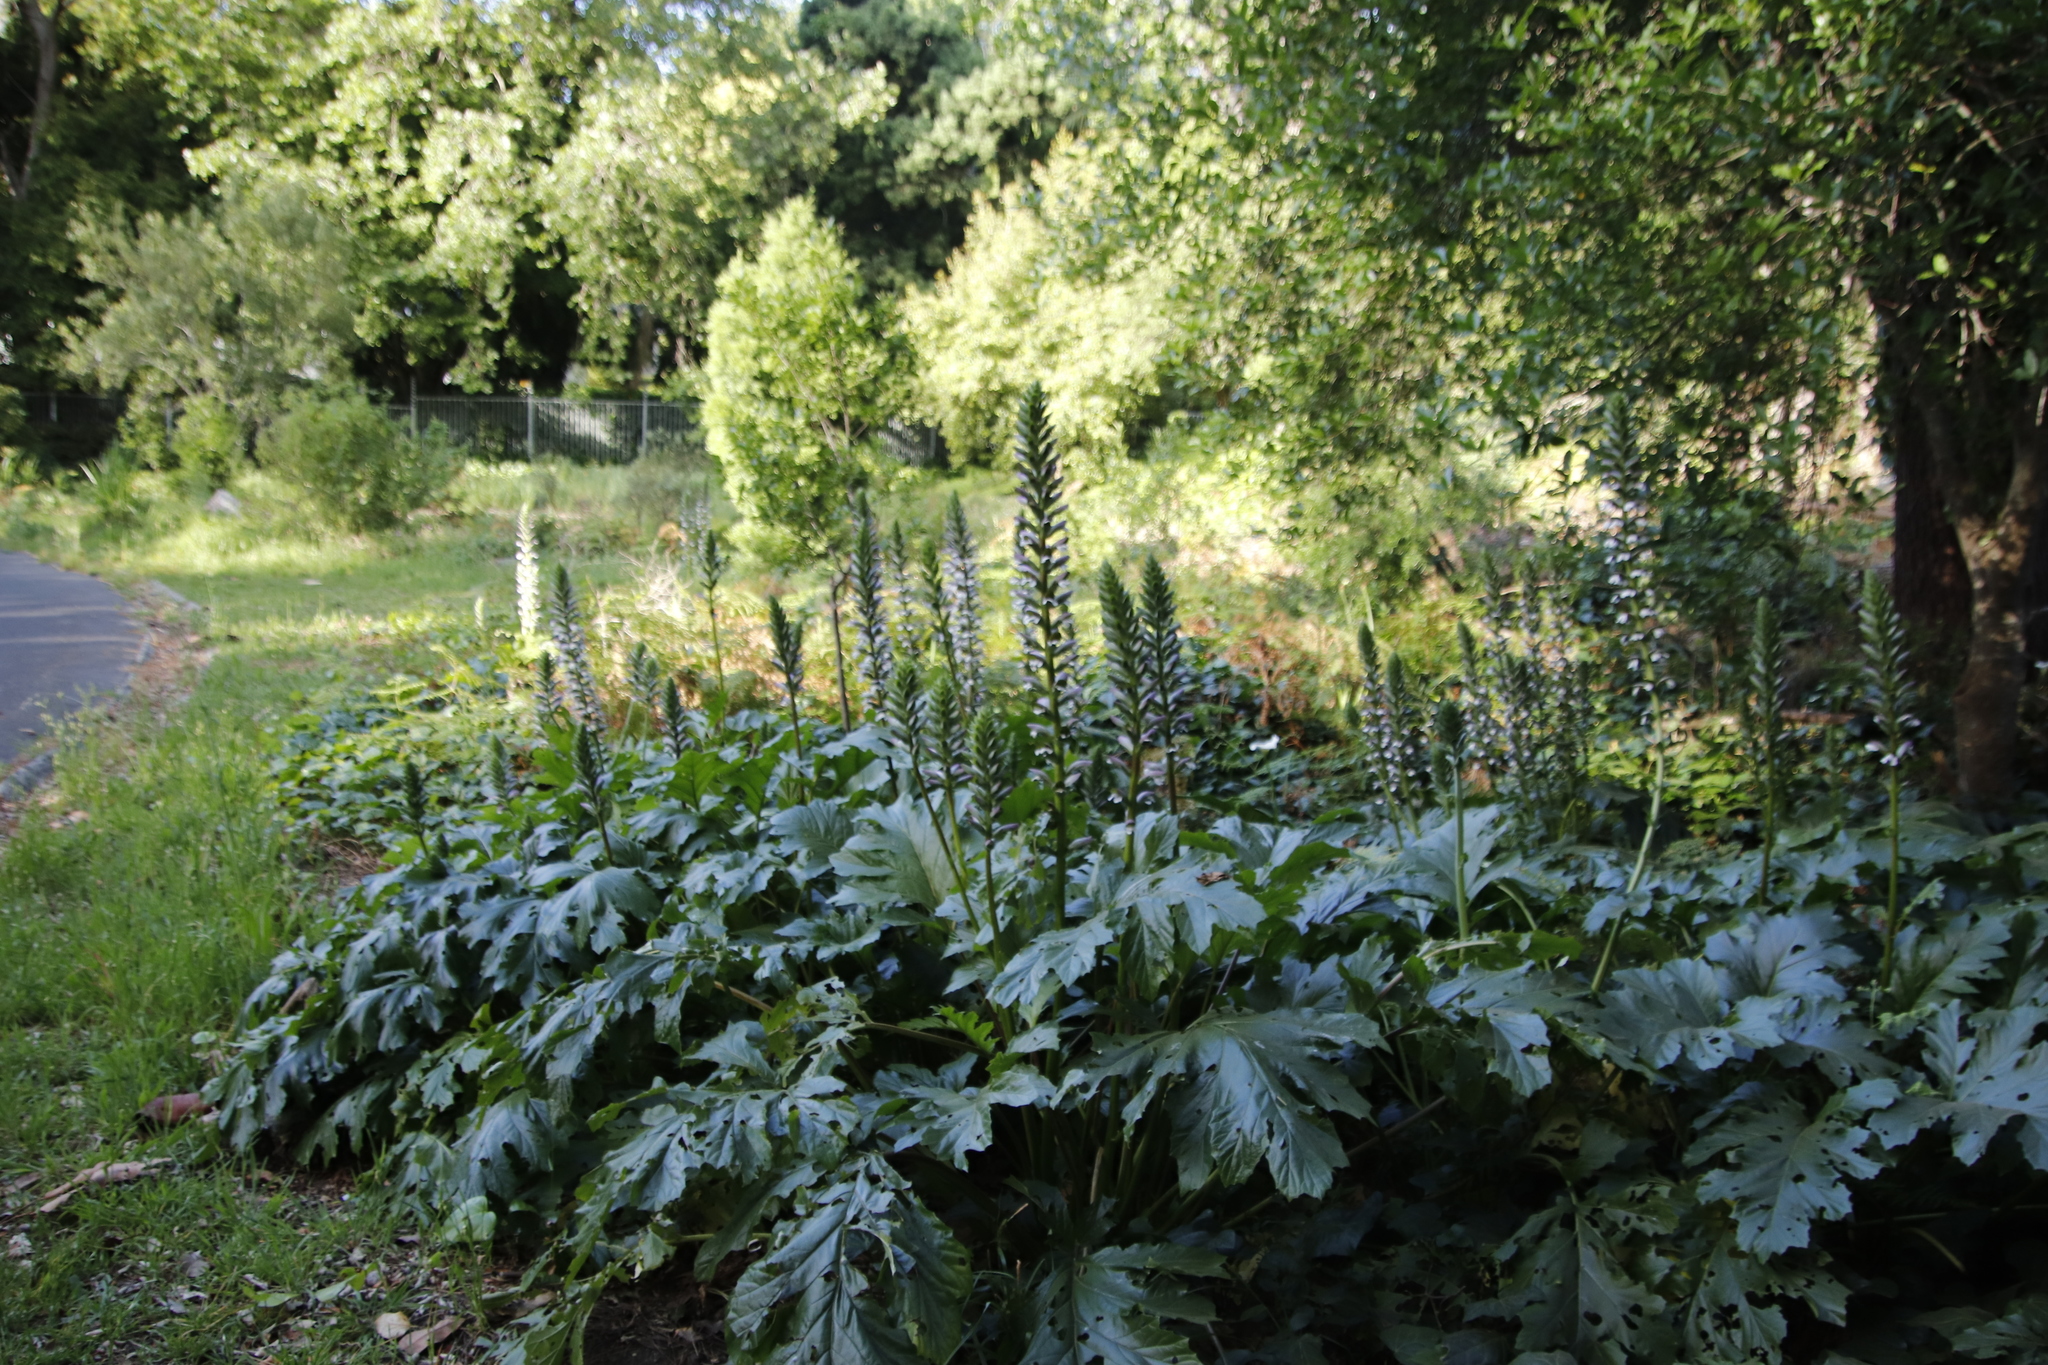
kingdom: Plantae
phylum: Tracheophyta
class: Magnoliopsida
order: Lamiales
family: Acanthaceae
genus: Acanthus
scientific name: Acanthus mollis
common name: Bear's-breech
